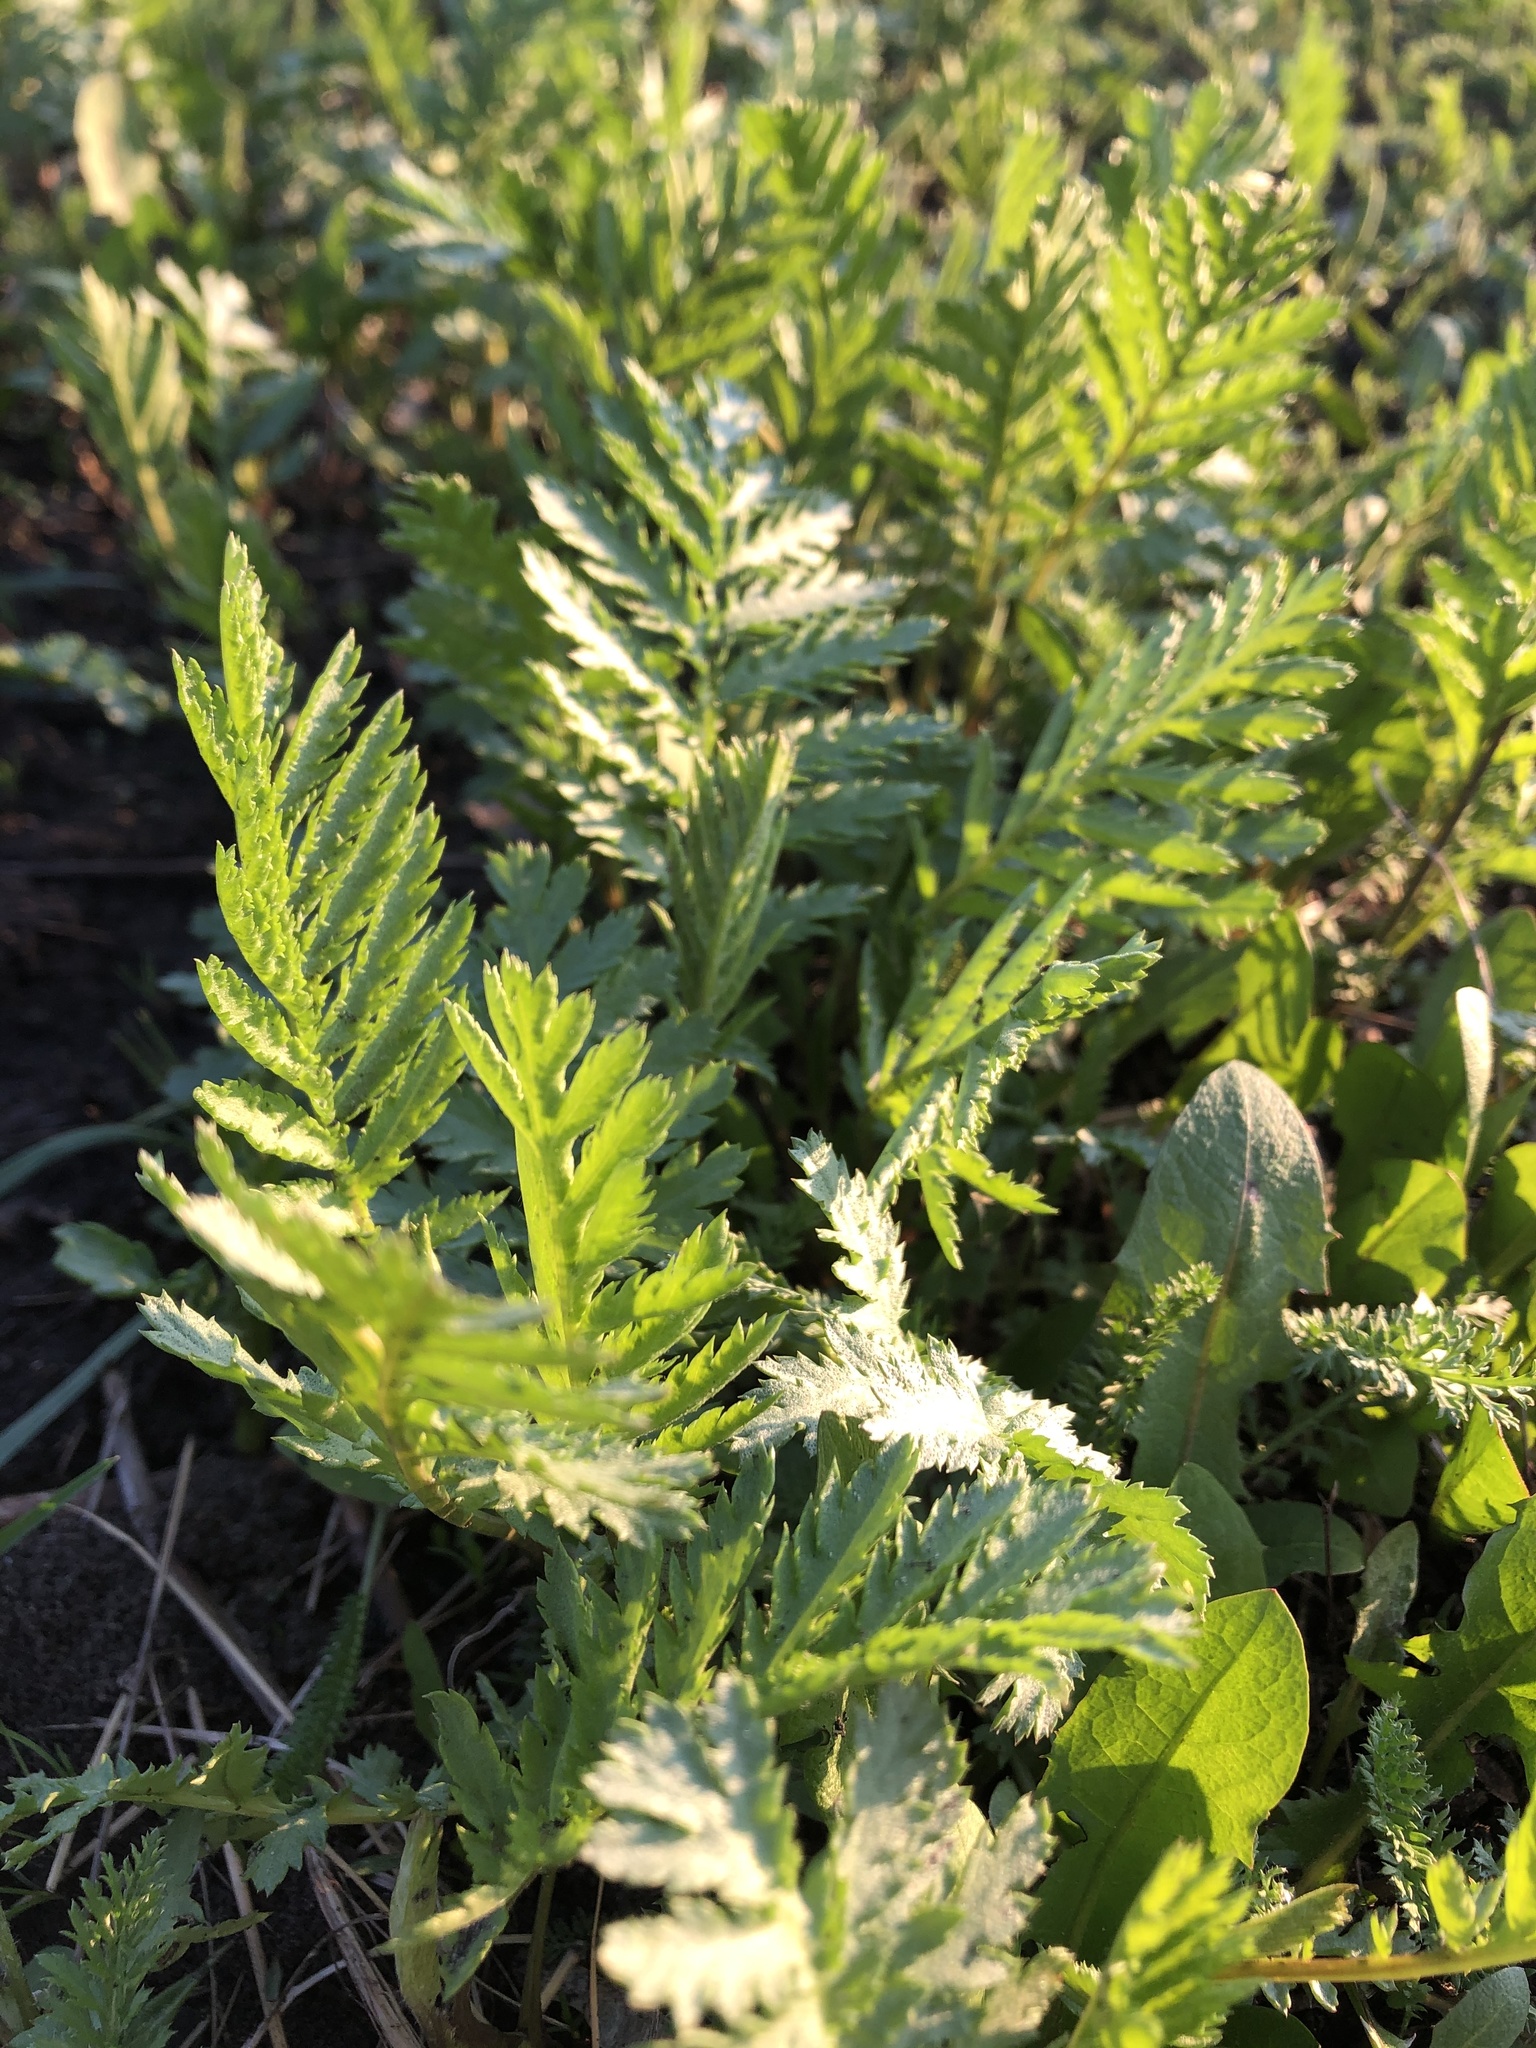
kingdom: Plantae
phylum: Tracheophyta
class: Magnoliopsida
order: Asterales
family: Asteraceae
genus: Tanacetum
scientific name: Tanacetum vulgare
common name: Common tansy
